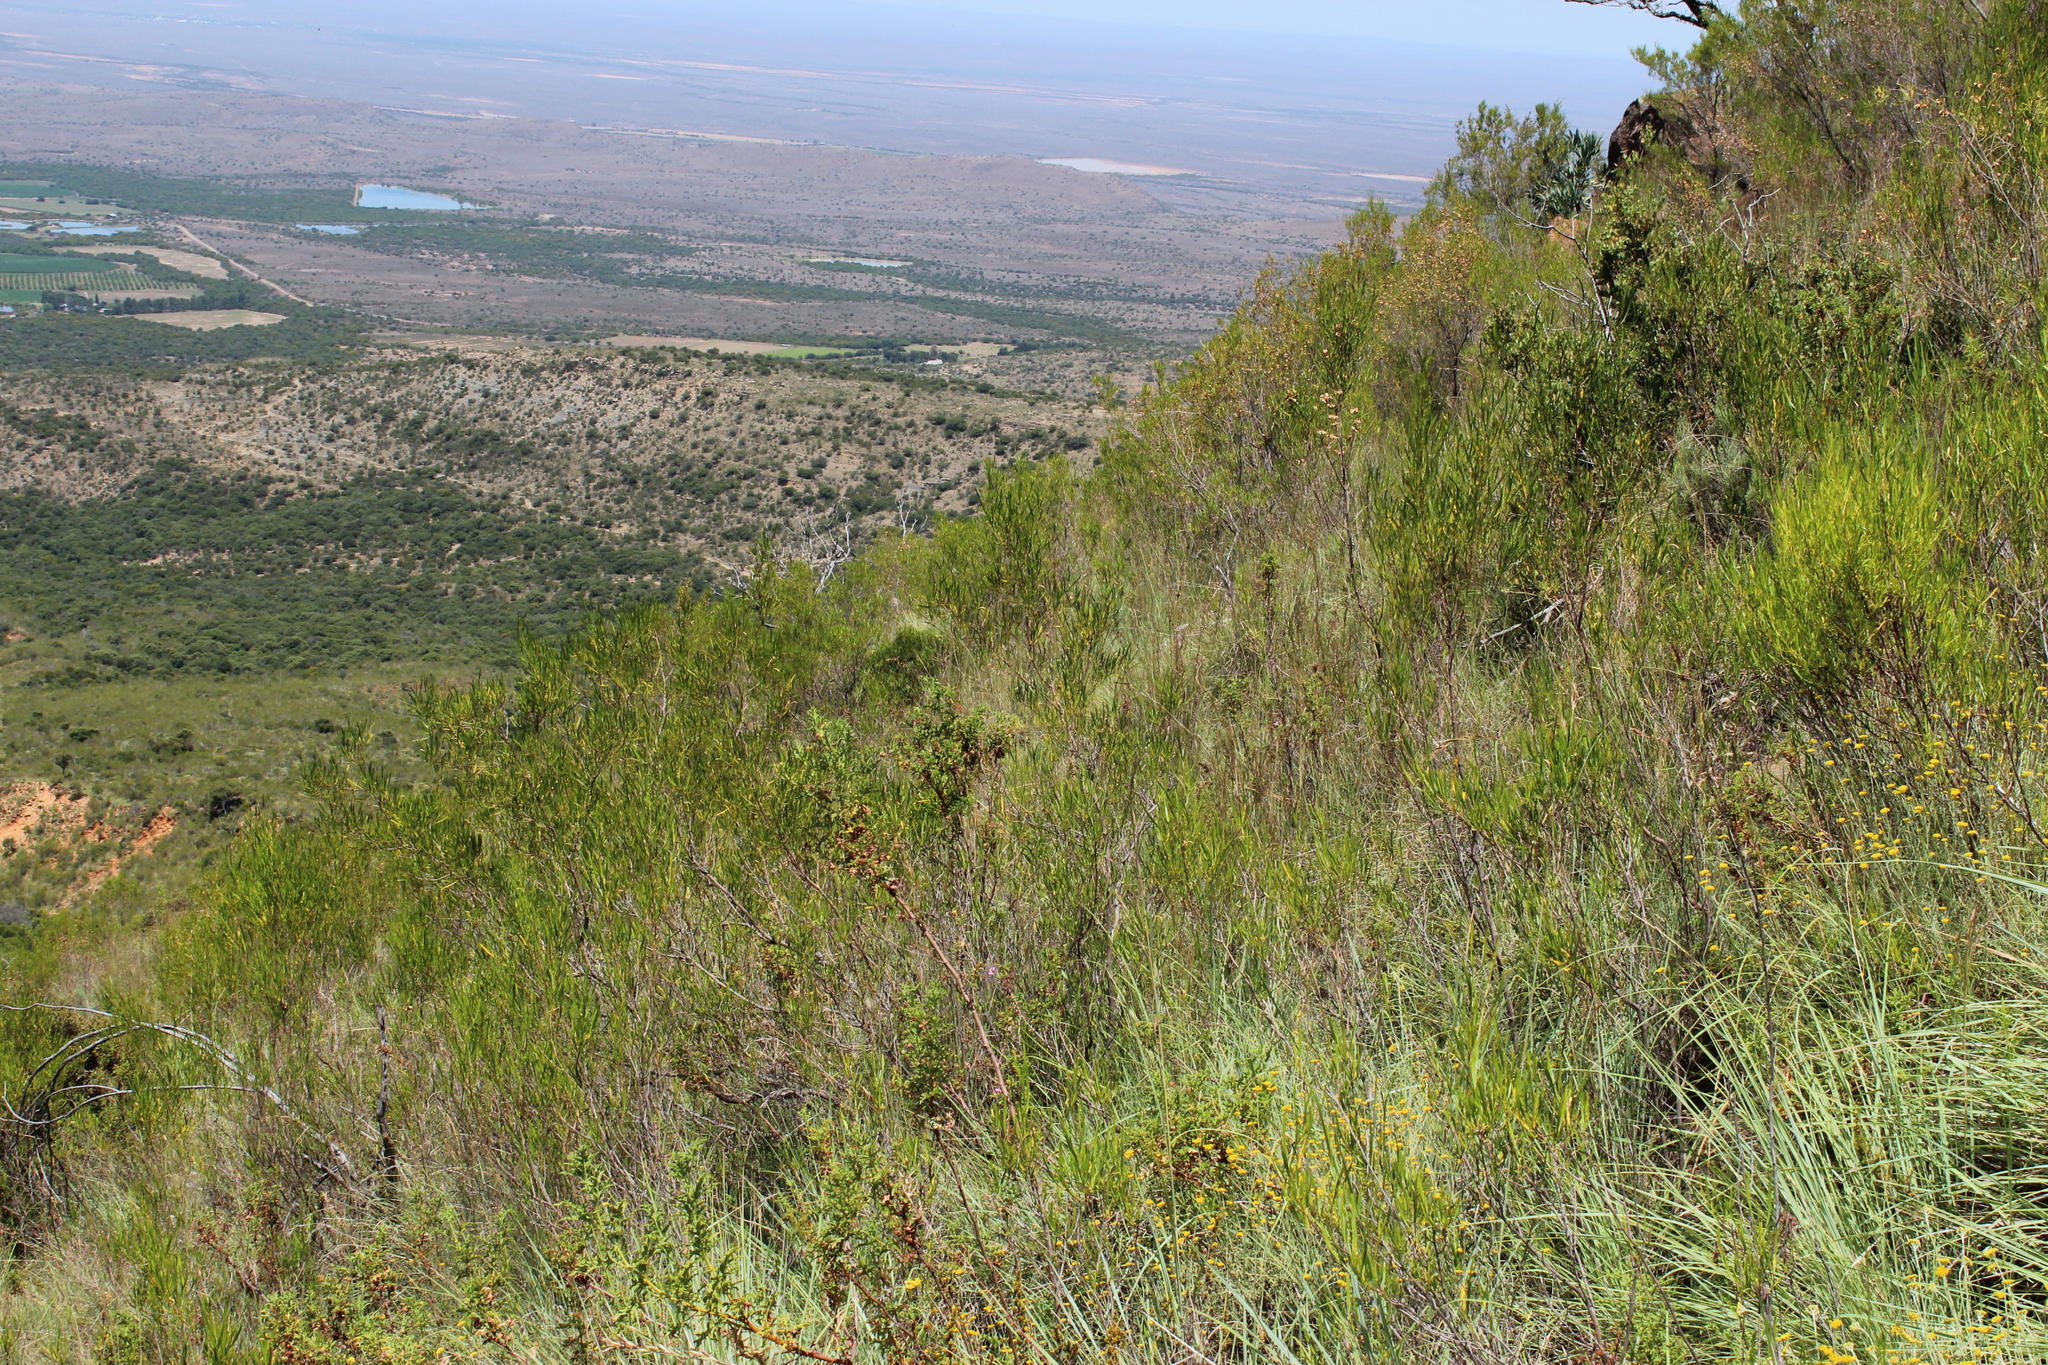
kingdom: Plantae
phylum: Tracheophyta
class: Magnoliopsida
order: Sapindales
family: Sapindaceae
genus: Dodonaea
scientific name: Dodonaea viscosa
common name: Hopbush
